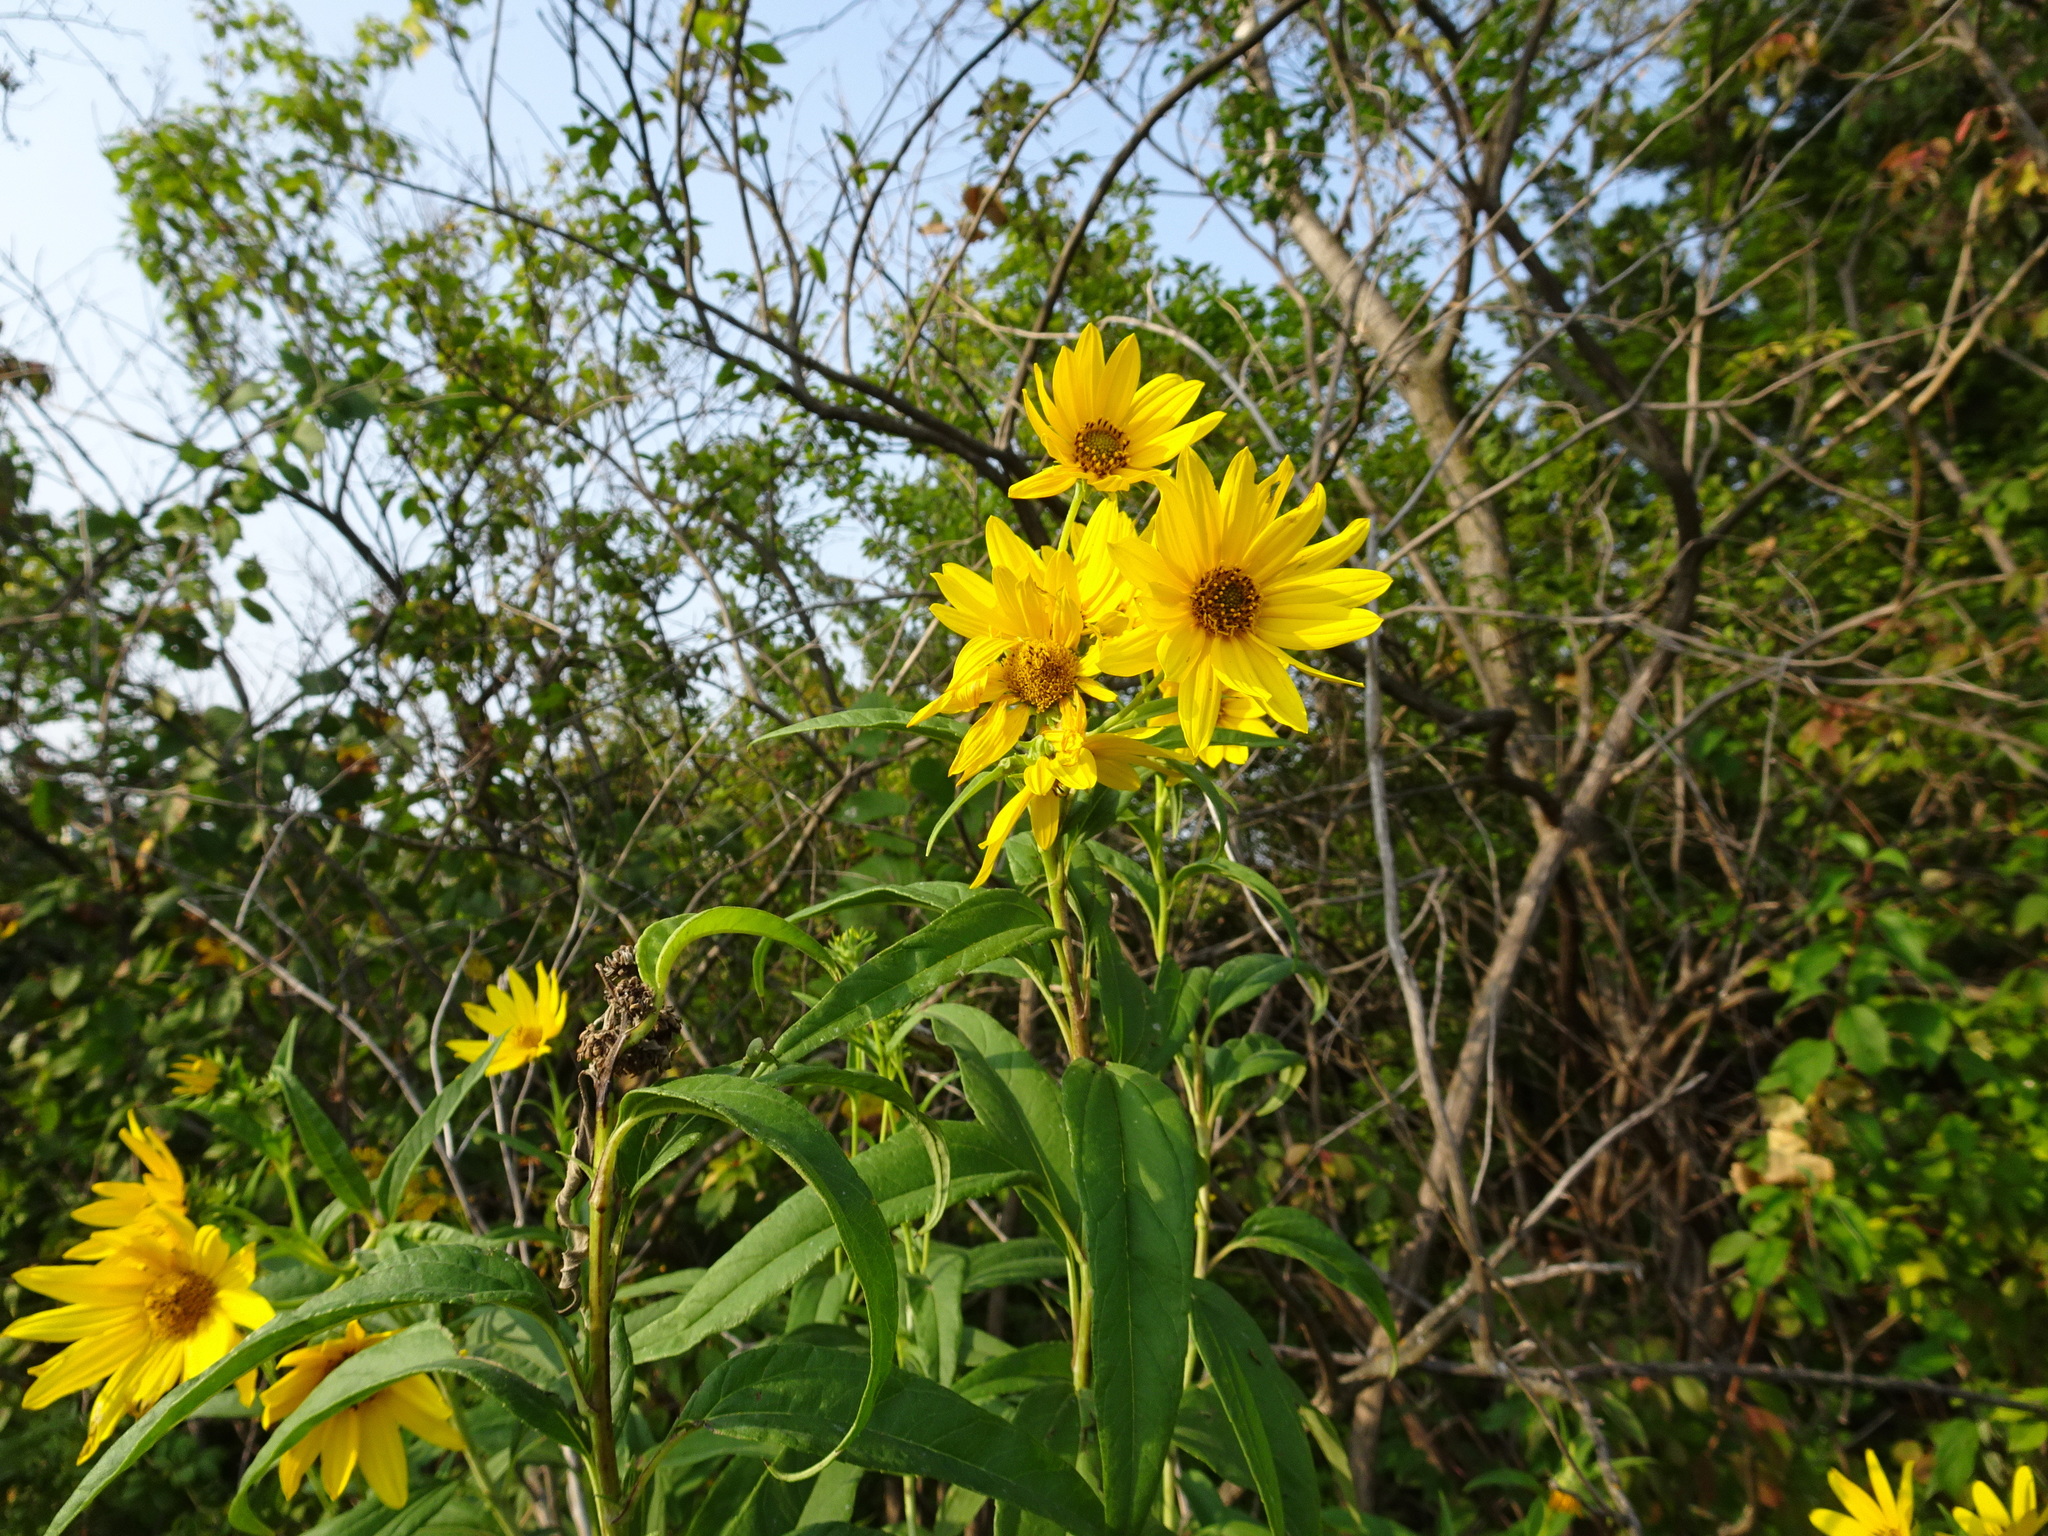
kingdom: Plantae
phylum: Tracheophyta
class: Magnoliopsida
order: Asterales
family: Asteraceae
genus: Helianthus
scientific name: Helianthus grosseserratus
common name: Sawtooth sunflower
